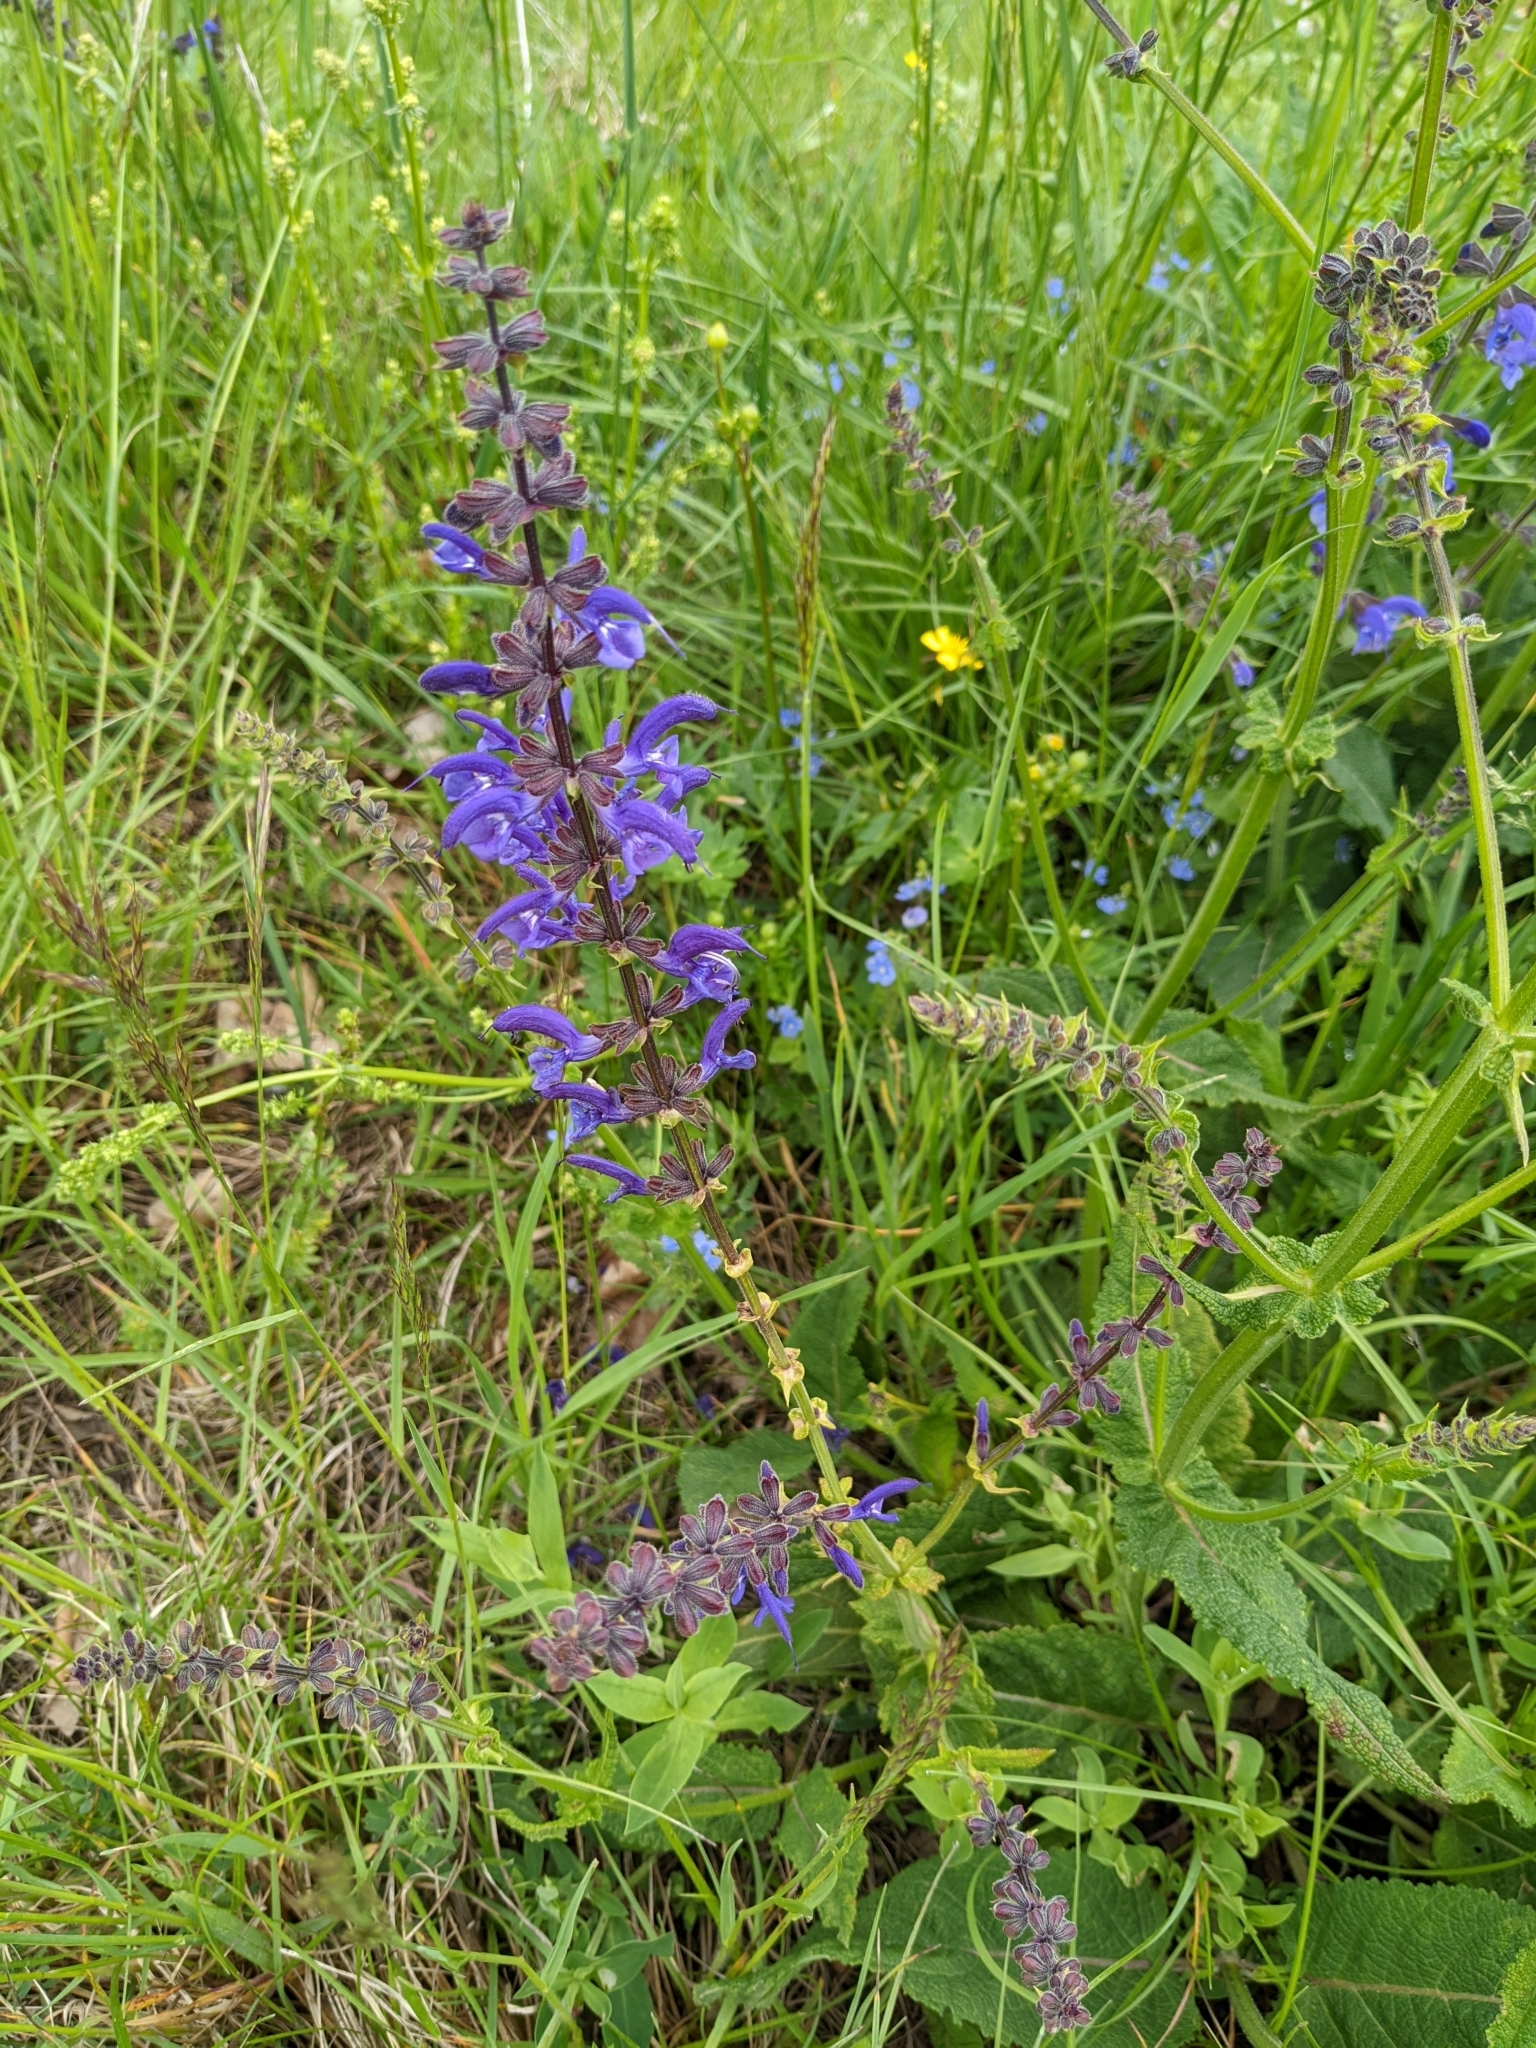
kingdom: Plantae
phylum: Tracheophyta
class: Magnoliopsida
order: Lamiales
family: Lamiaceae
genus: Salvia
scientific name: Salvia pratensis
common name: Meadow sage
